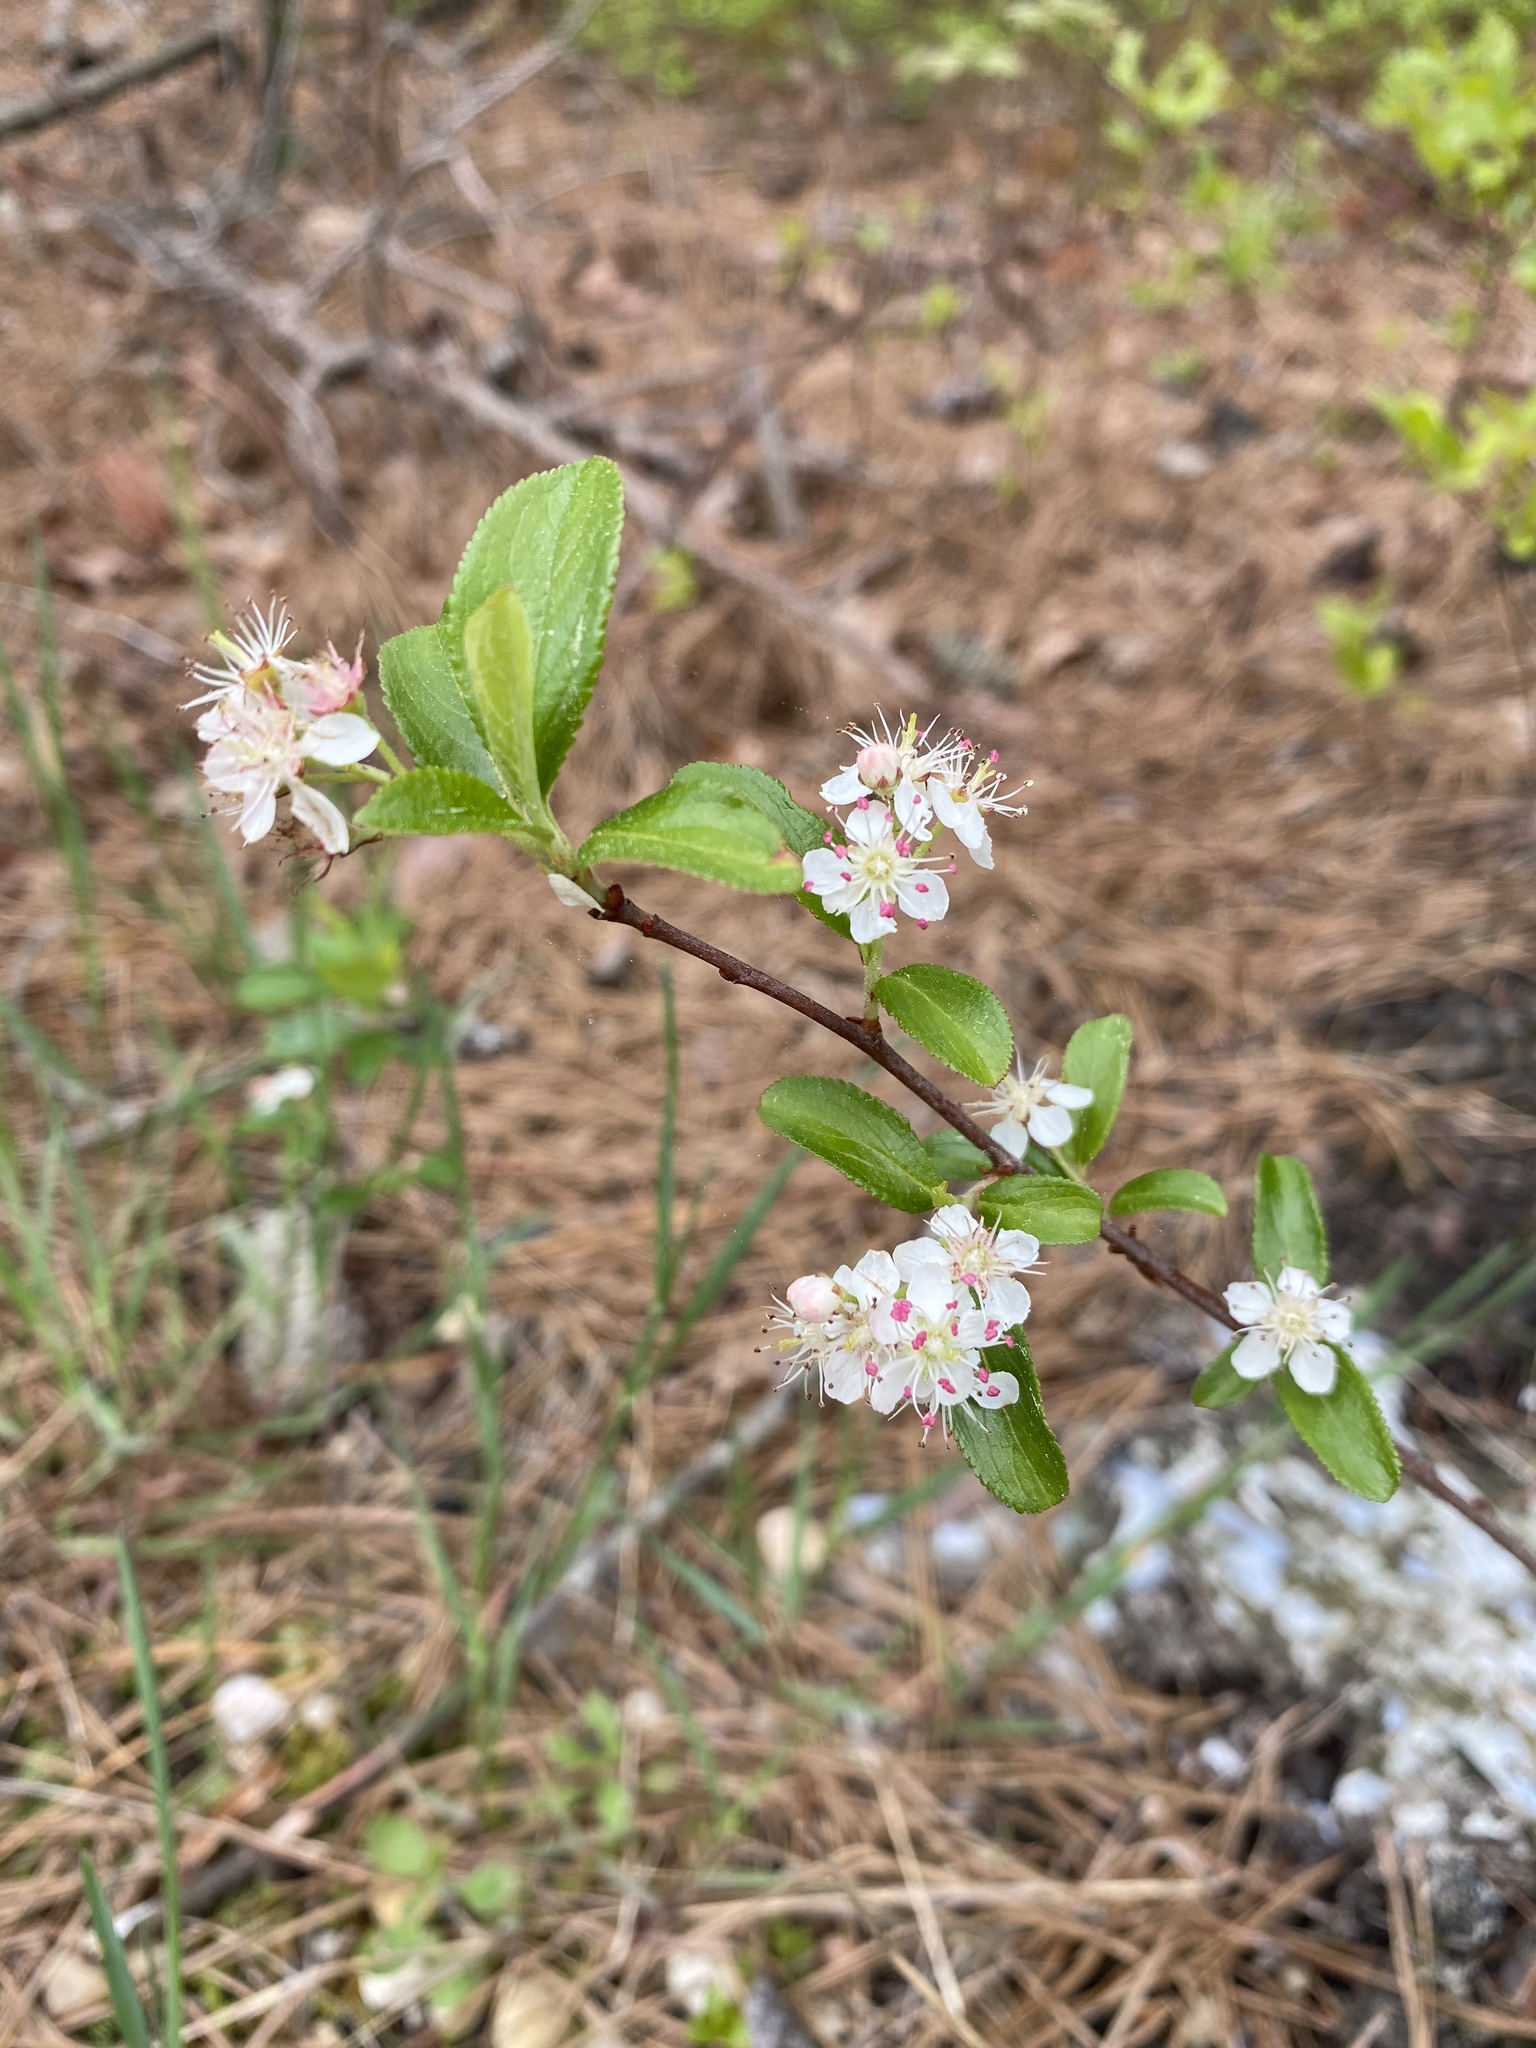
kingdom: Plantae
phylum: Tracheophyta
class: Magnoliopsida
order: Rosales
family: Rosaceae
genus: Aronia
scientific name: Aronia arbutifolia
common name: Red chokeberry
